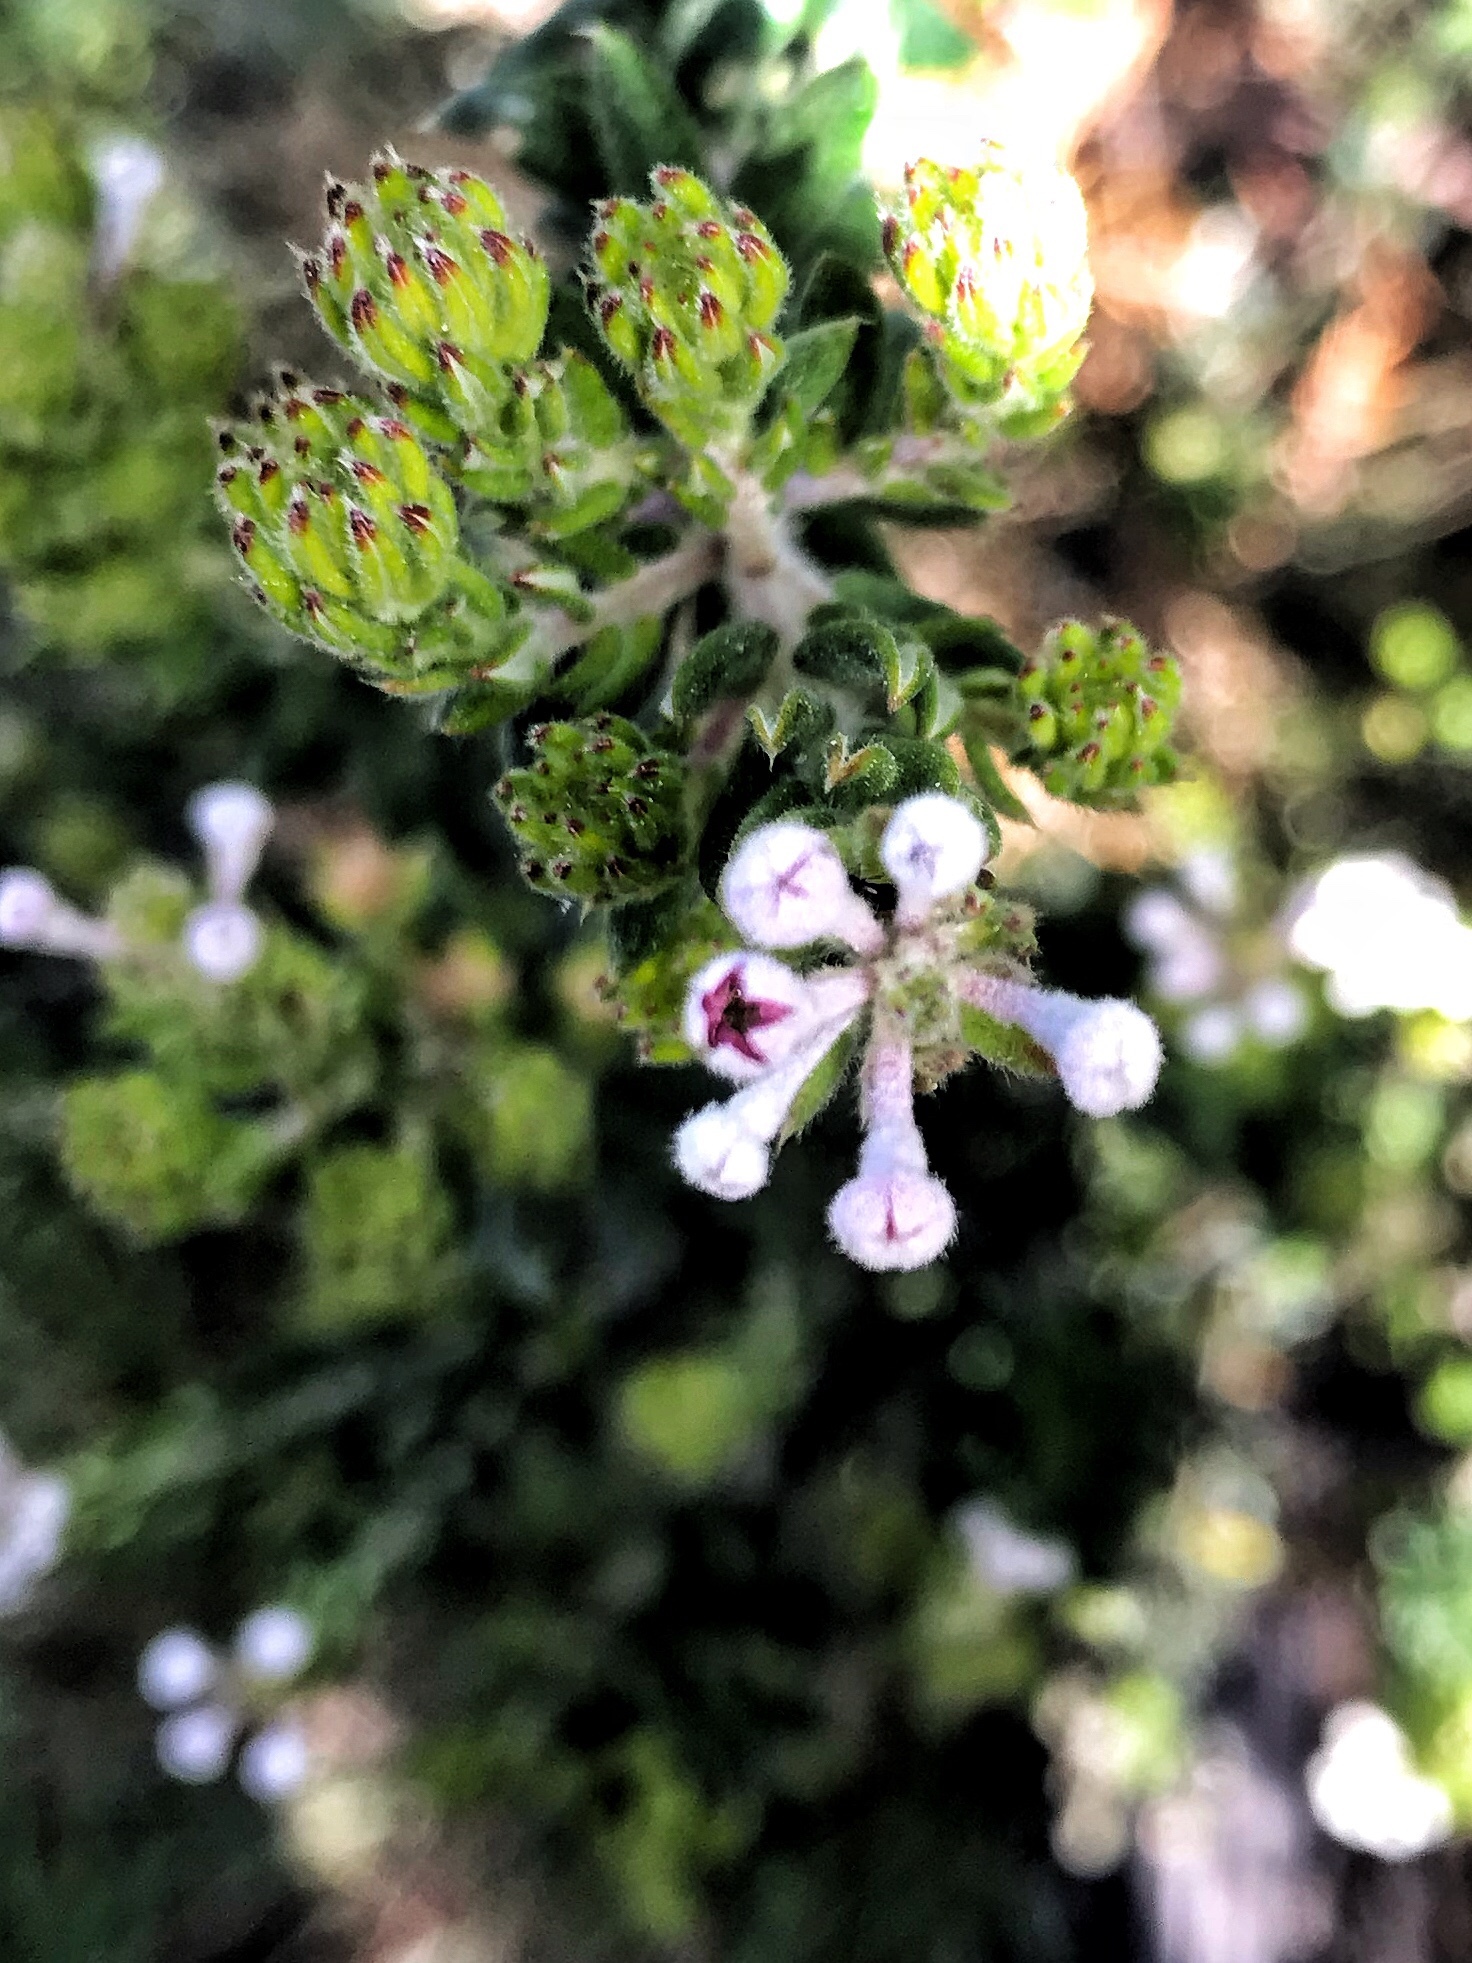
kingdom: Plantae
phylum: Tracheophyta
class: Magnoliopsida
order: Rosales
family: Rhamnaceae
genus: Phylica
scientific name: Phylica pinea
